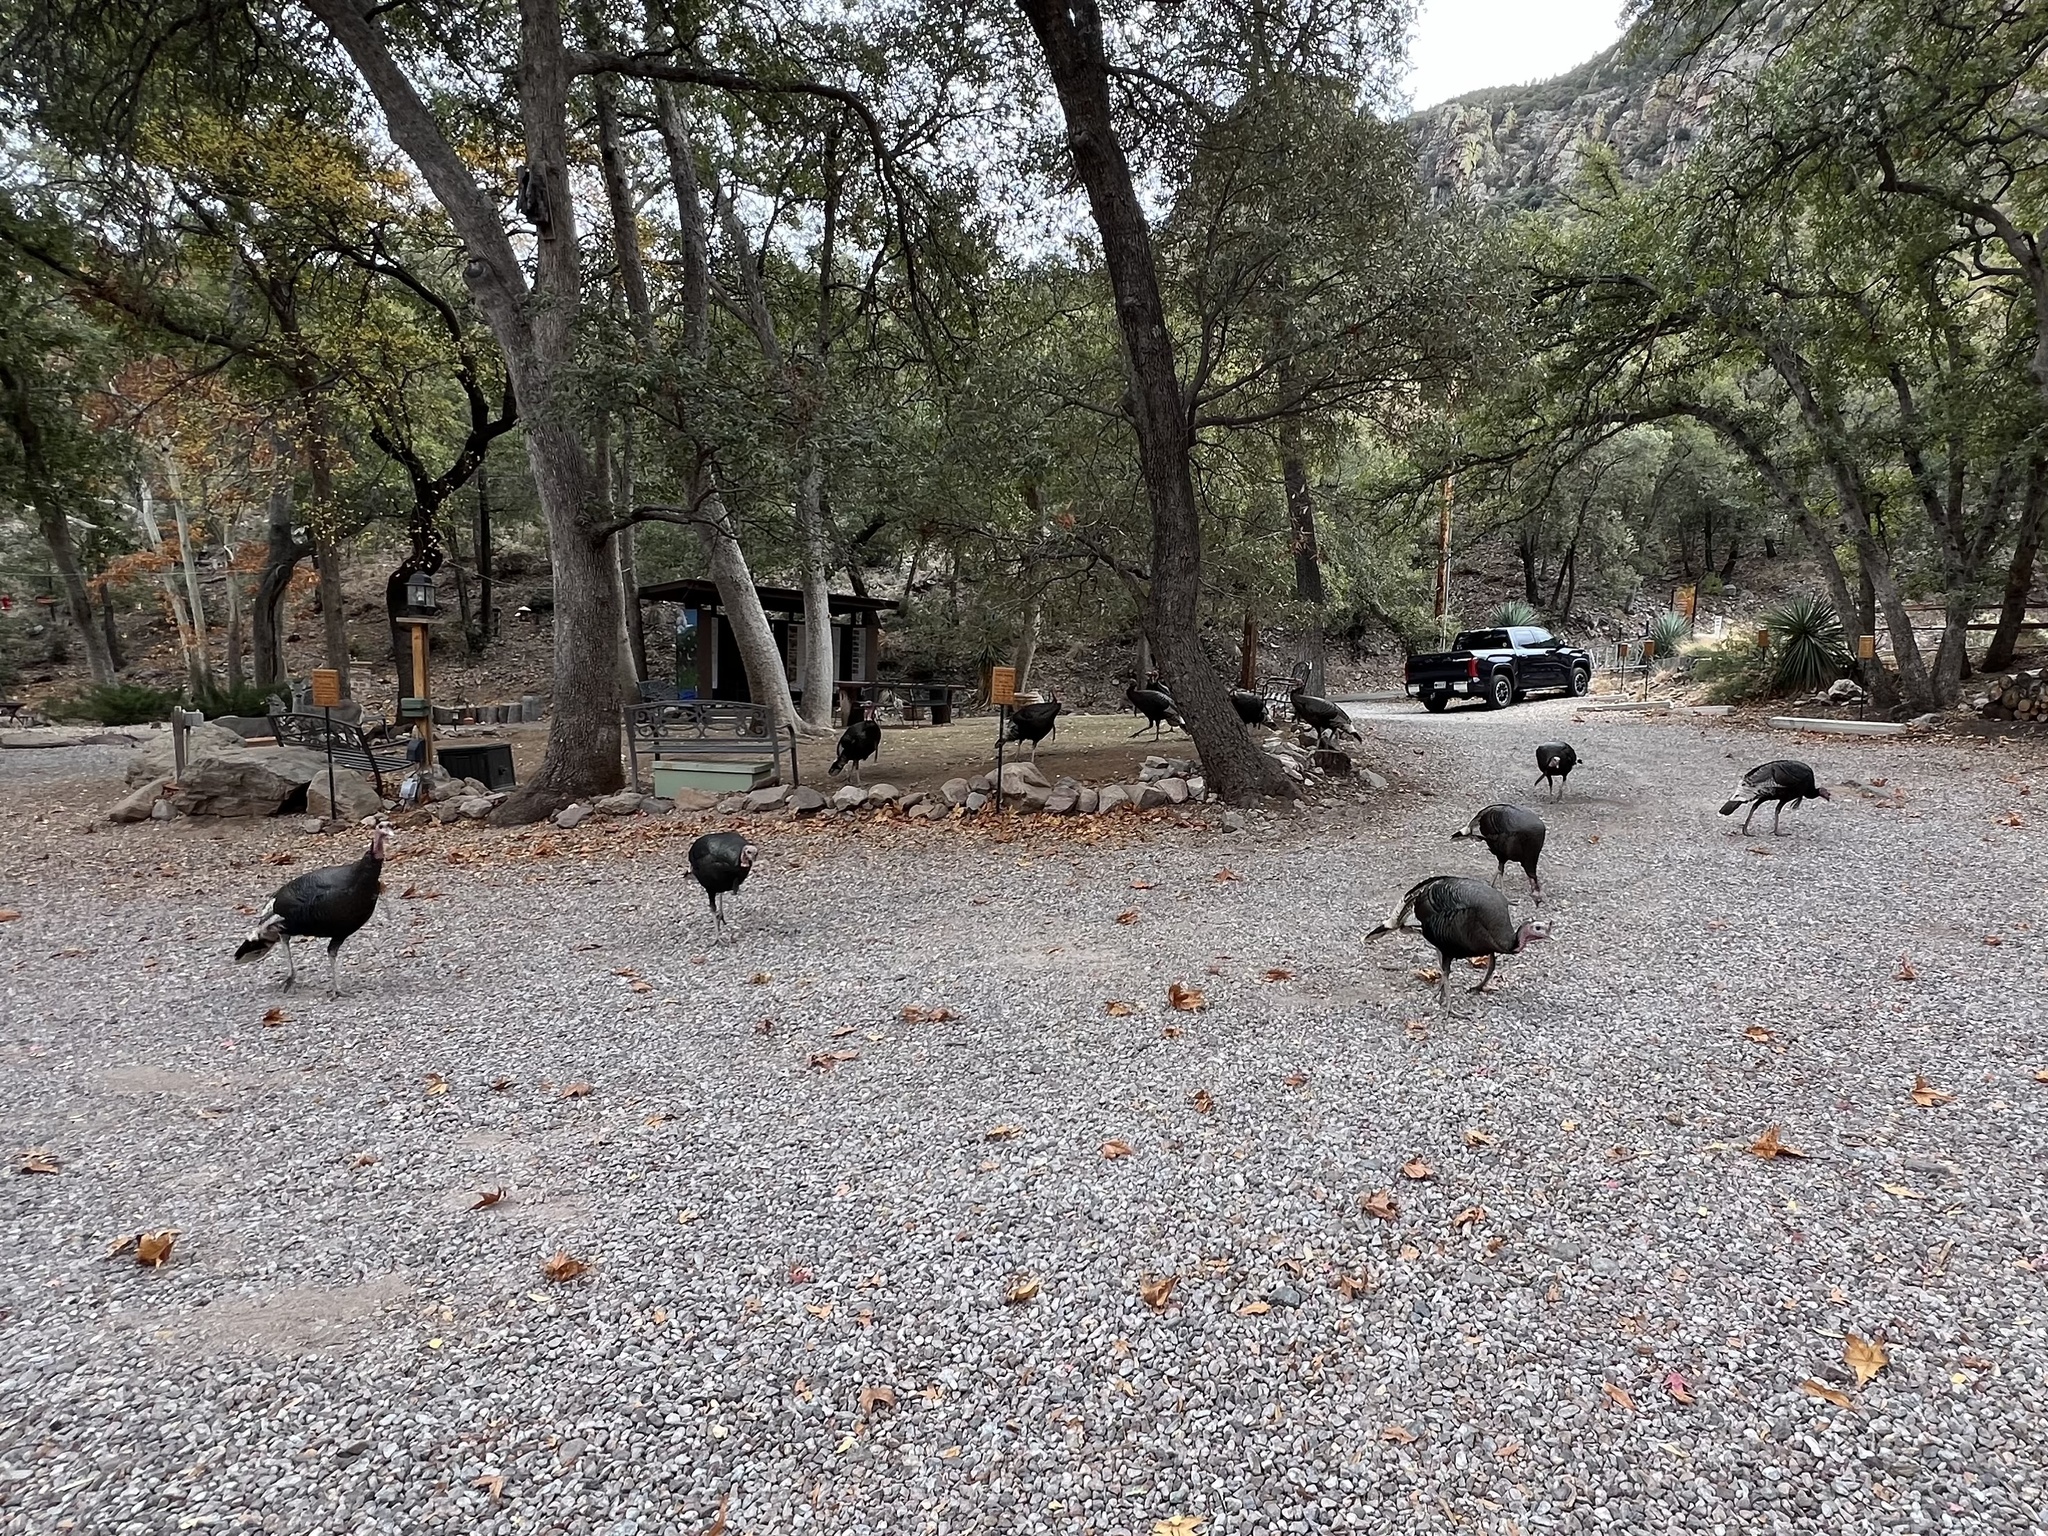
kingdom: Animalia
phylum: Chordata
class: Aves
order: Galliformes
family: Phasianidae
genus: Meleagris
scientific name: Meleagris gallopavo
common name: Wild turkey
